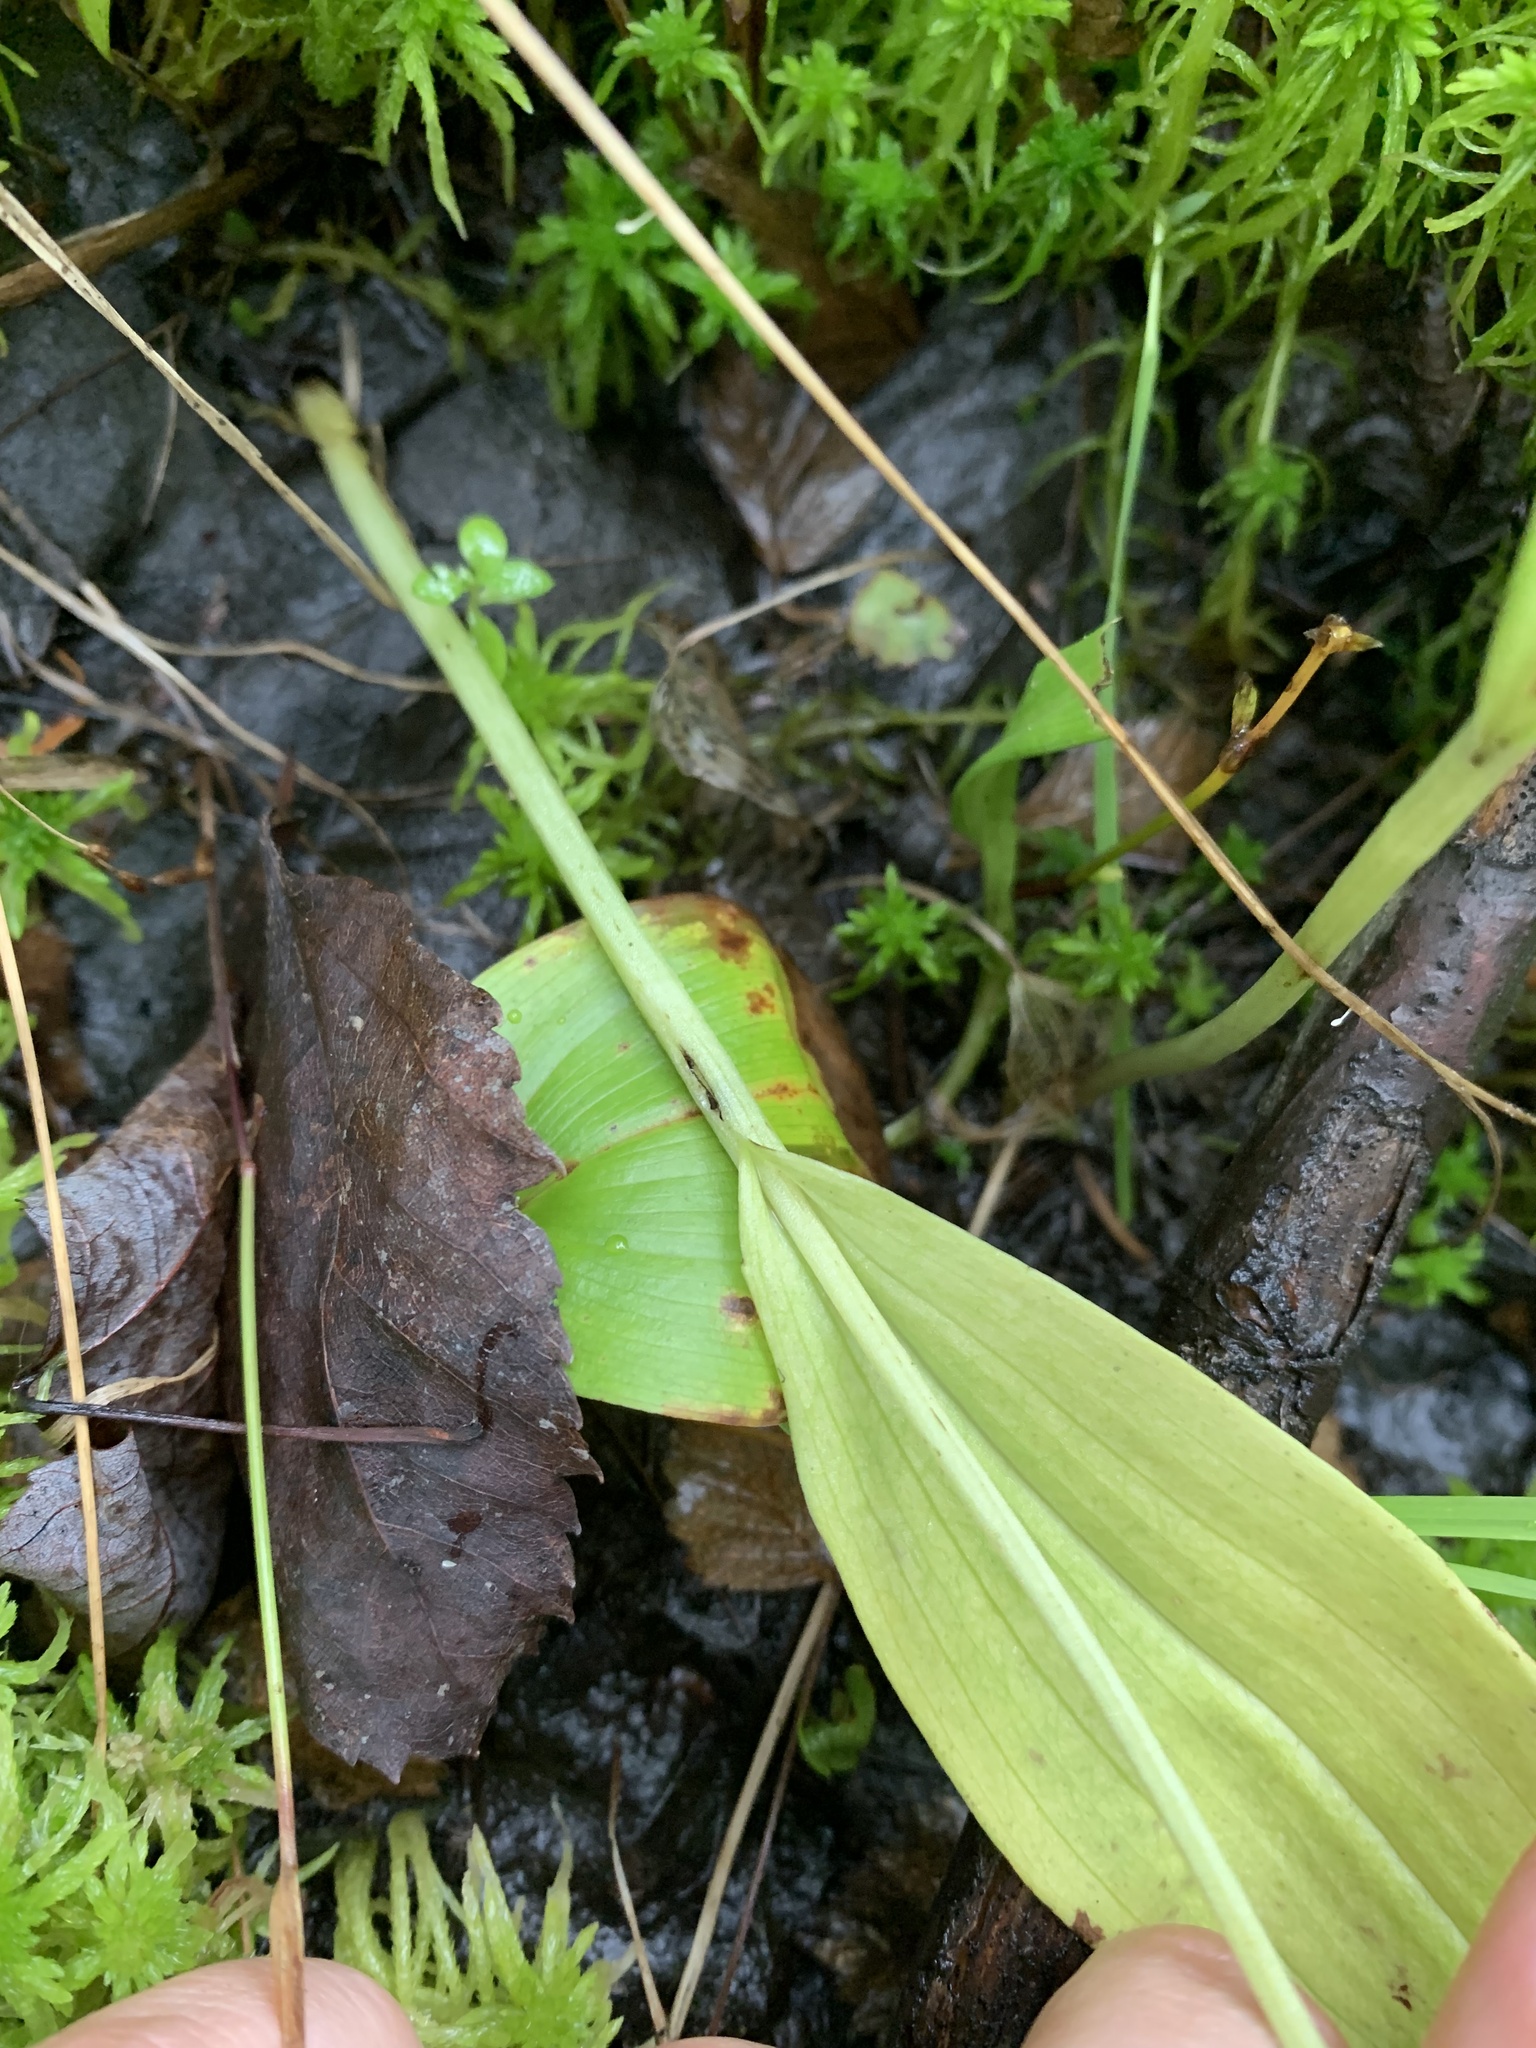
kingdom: Plantae
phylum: Tracheophyta
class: Liliopsida
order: Asparagales
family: Orchidaceae
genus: Platanthera
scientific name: Platanthera clavellata
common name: Club-spur orchid
